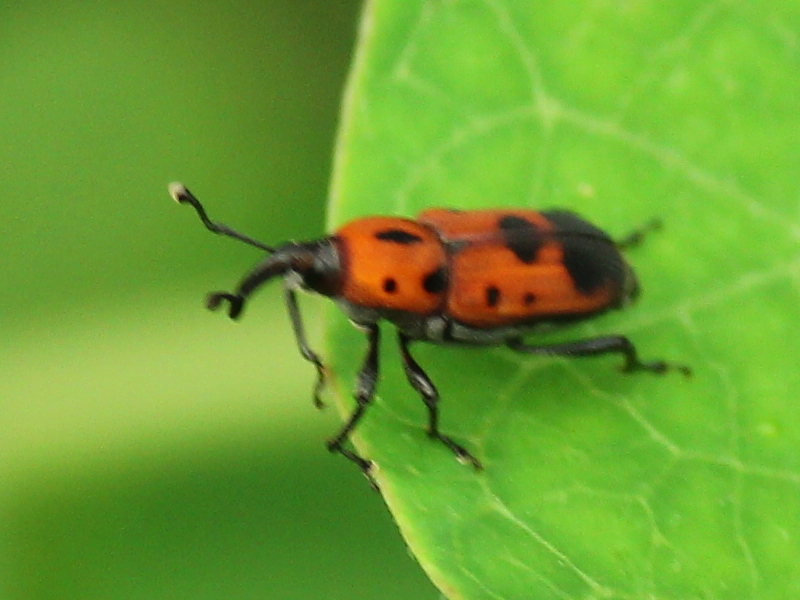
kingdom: Animalia
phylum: Arthropoda
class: Insecta
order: Coleoptera
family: Dryophthoridae
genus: Rhodobaenus
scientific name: Rhodobaenus quinquepunctatus
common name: Cocklebur weevil
